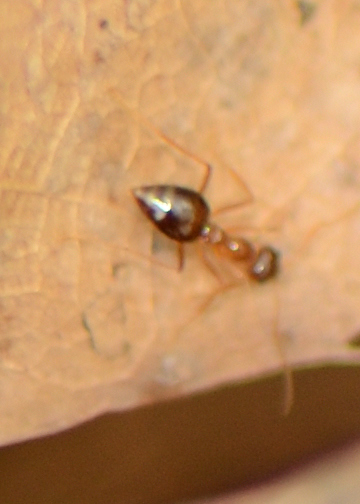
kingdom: Animalia
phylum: Arthropoda
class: Insecta
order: Hymenoptera
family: Formicidae
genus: Prenolepis
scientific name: Prenolepis imparis
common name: Small honey ant
